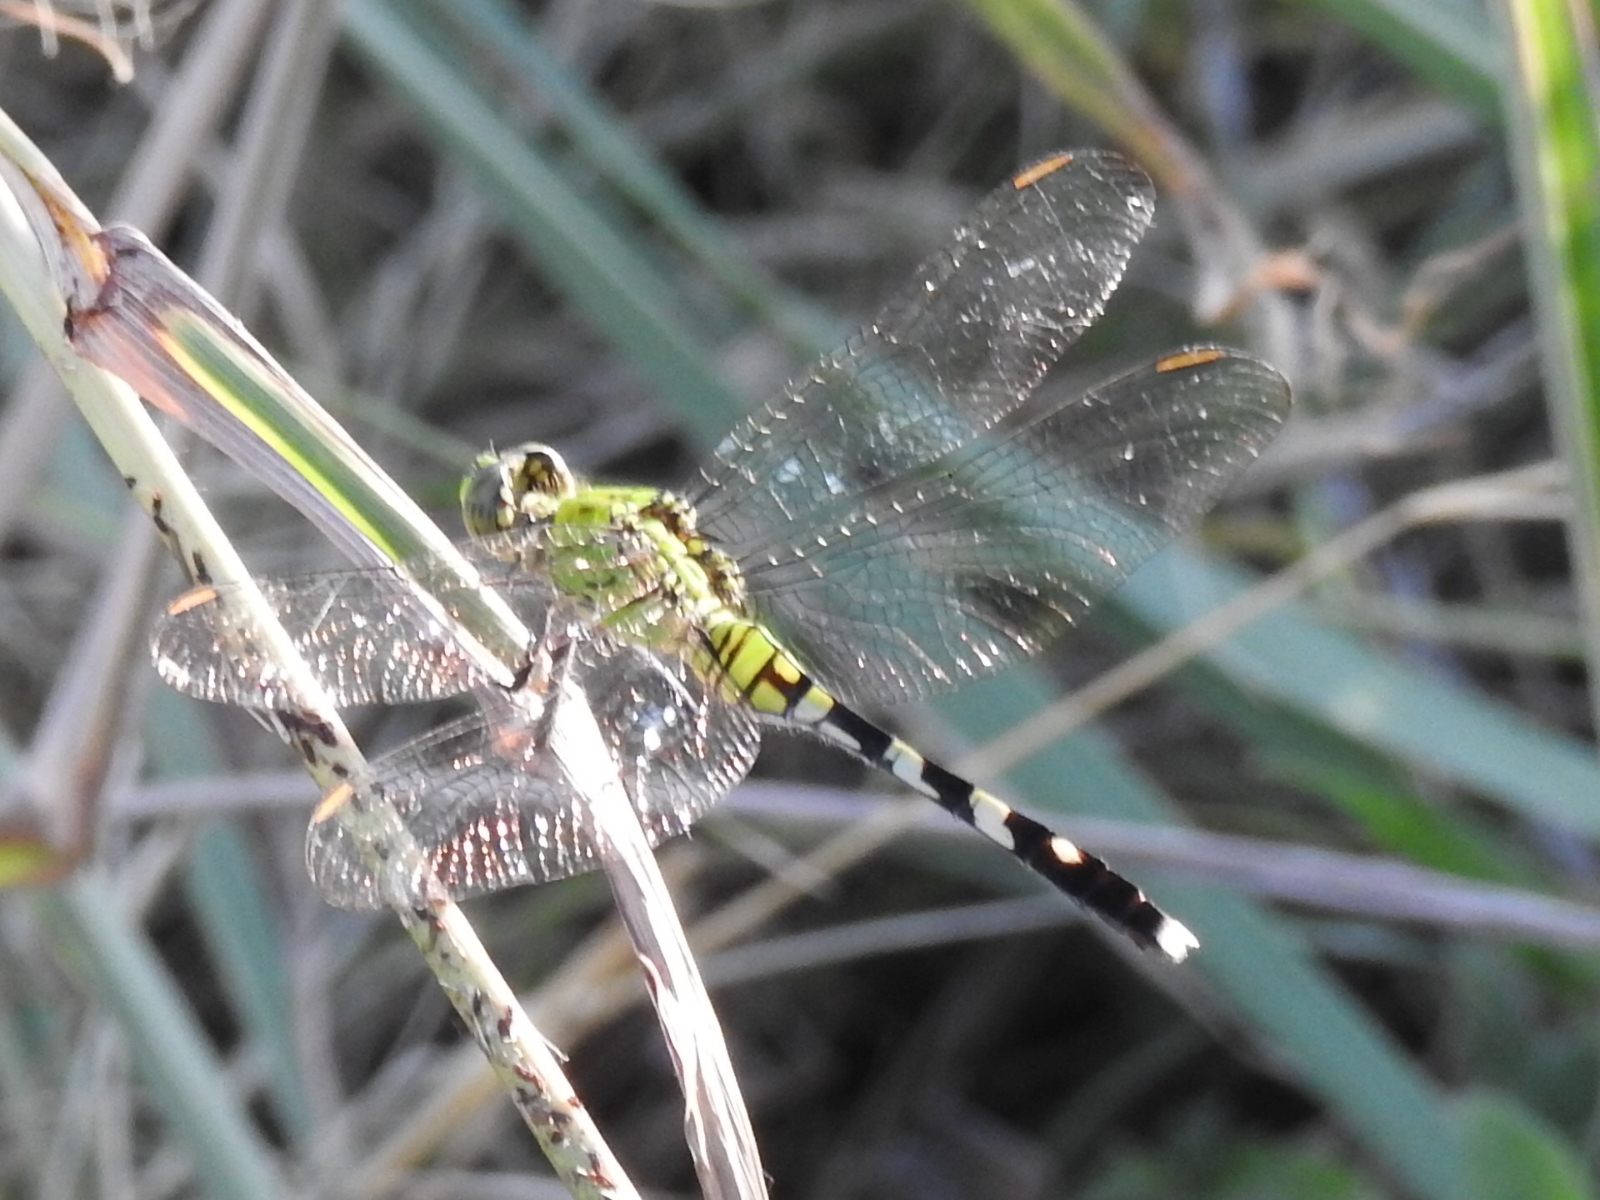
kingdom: Animalia
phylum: Arthropoda
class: Insecta
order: Odonata
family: Libellulidae
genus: Erythemis
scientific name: Erythemis simplicicollis
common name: Eastern pondhawk
